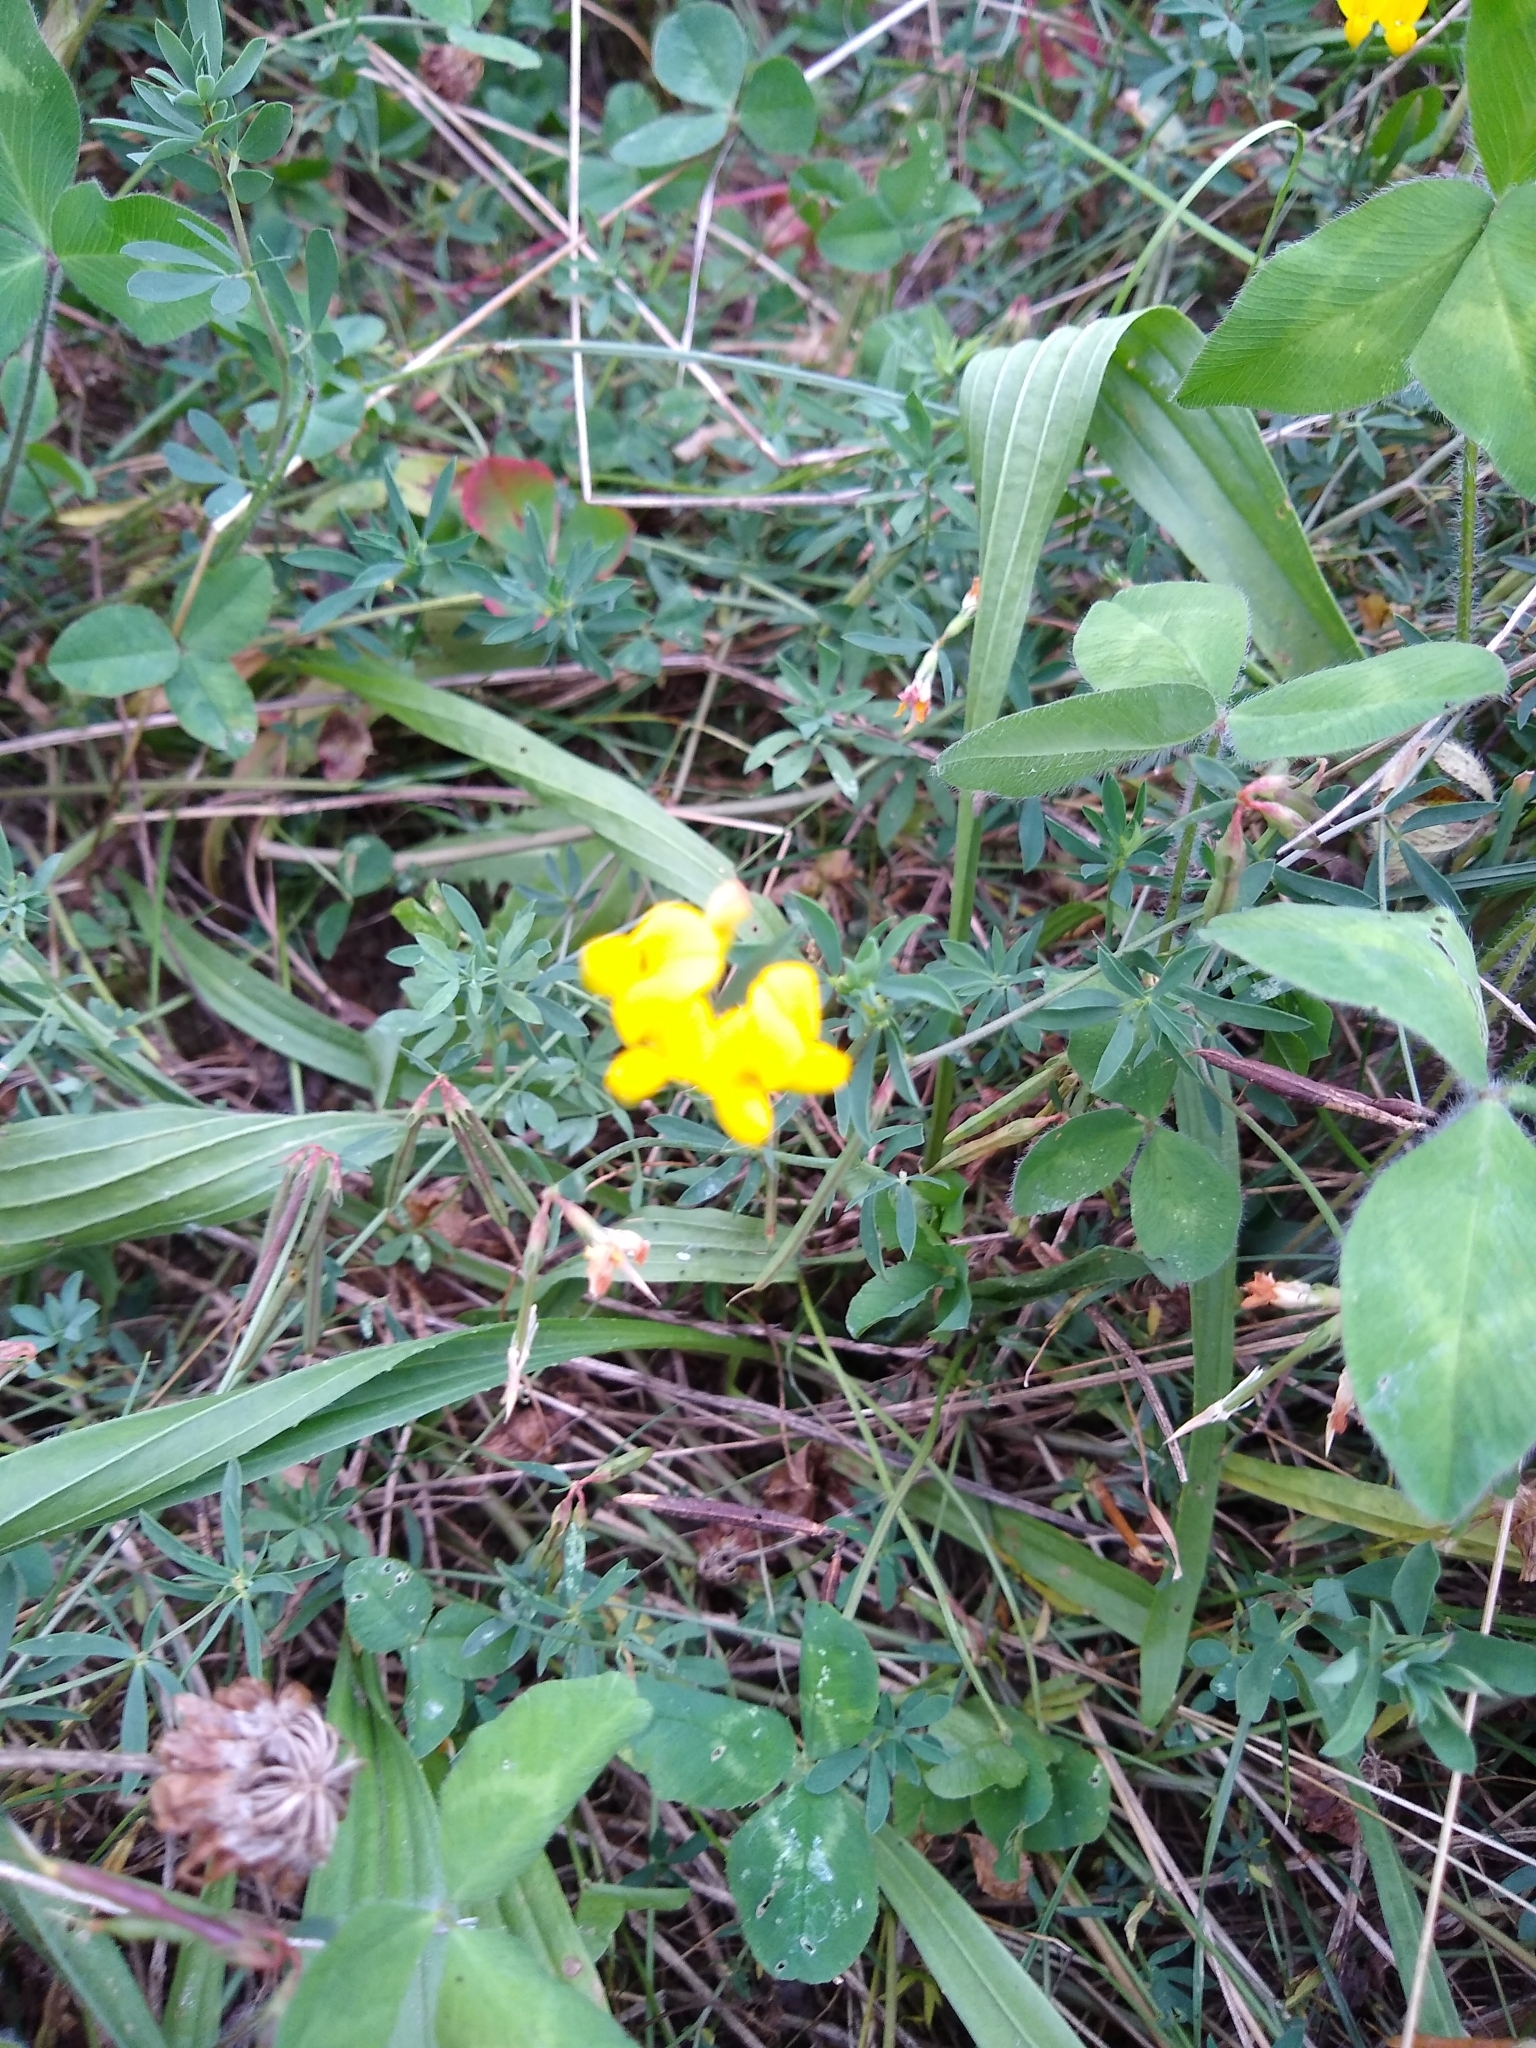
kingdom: Plantae
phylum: Tracheophyta
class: Magnoliopsida
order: Fabales
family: Fabaceae
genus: Lotus
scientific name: Lotus corniculatus
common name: Common bird's-foot-trefoil
